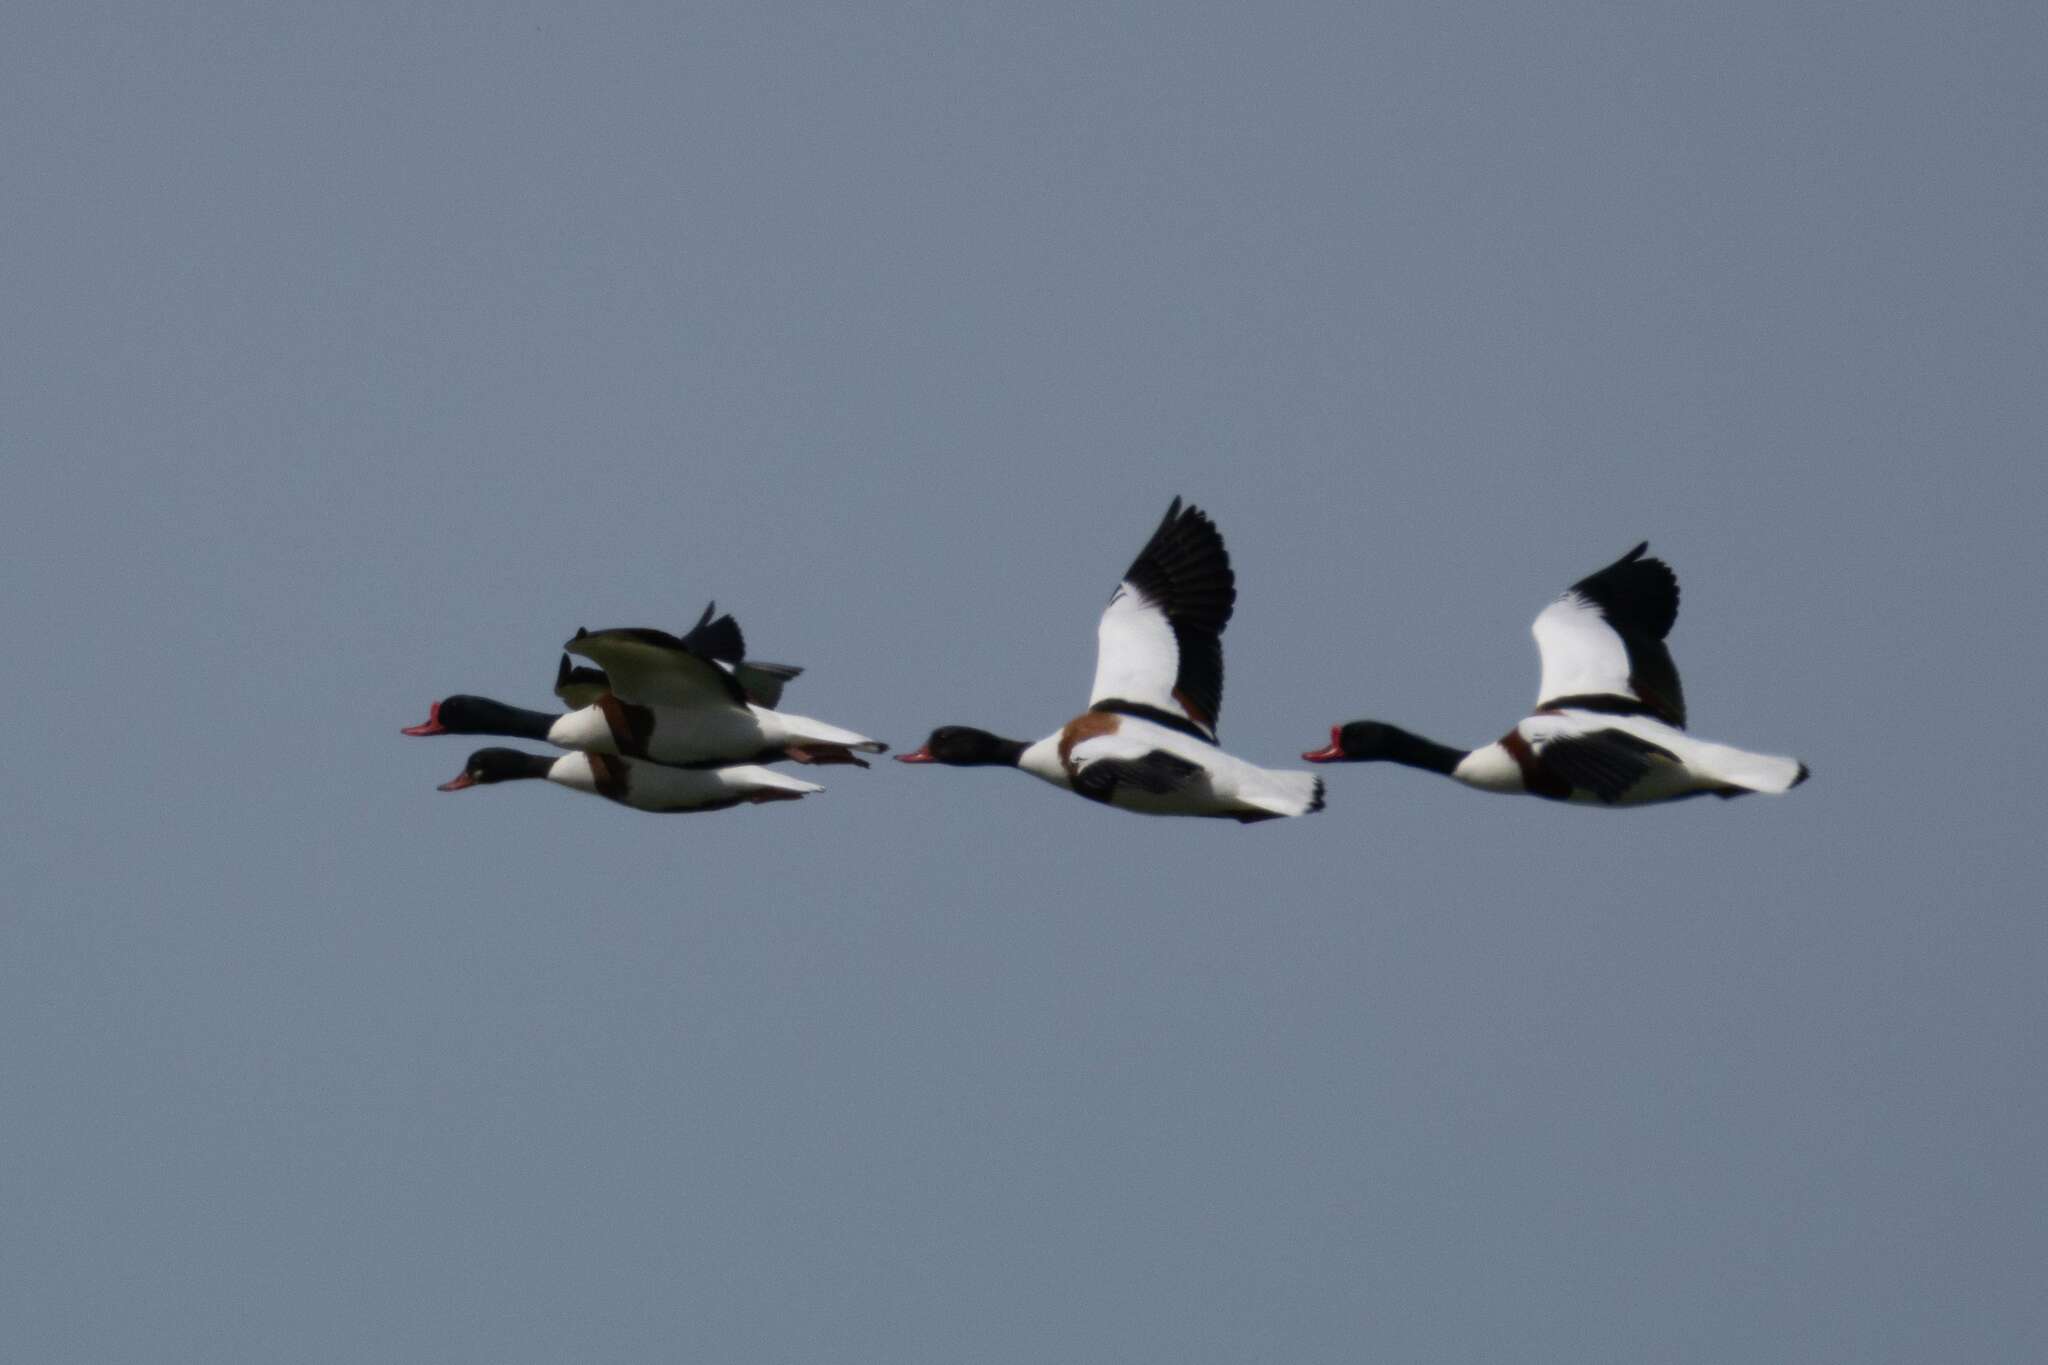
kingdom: Animalia
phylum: Chordata
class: Aves
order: Anseriformes
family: Anatidae
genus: Tadorna
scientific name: Tadorna tadorna
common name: Common shelduck
